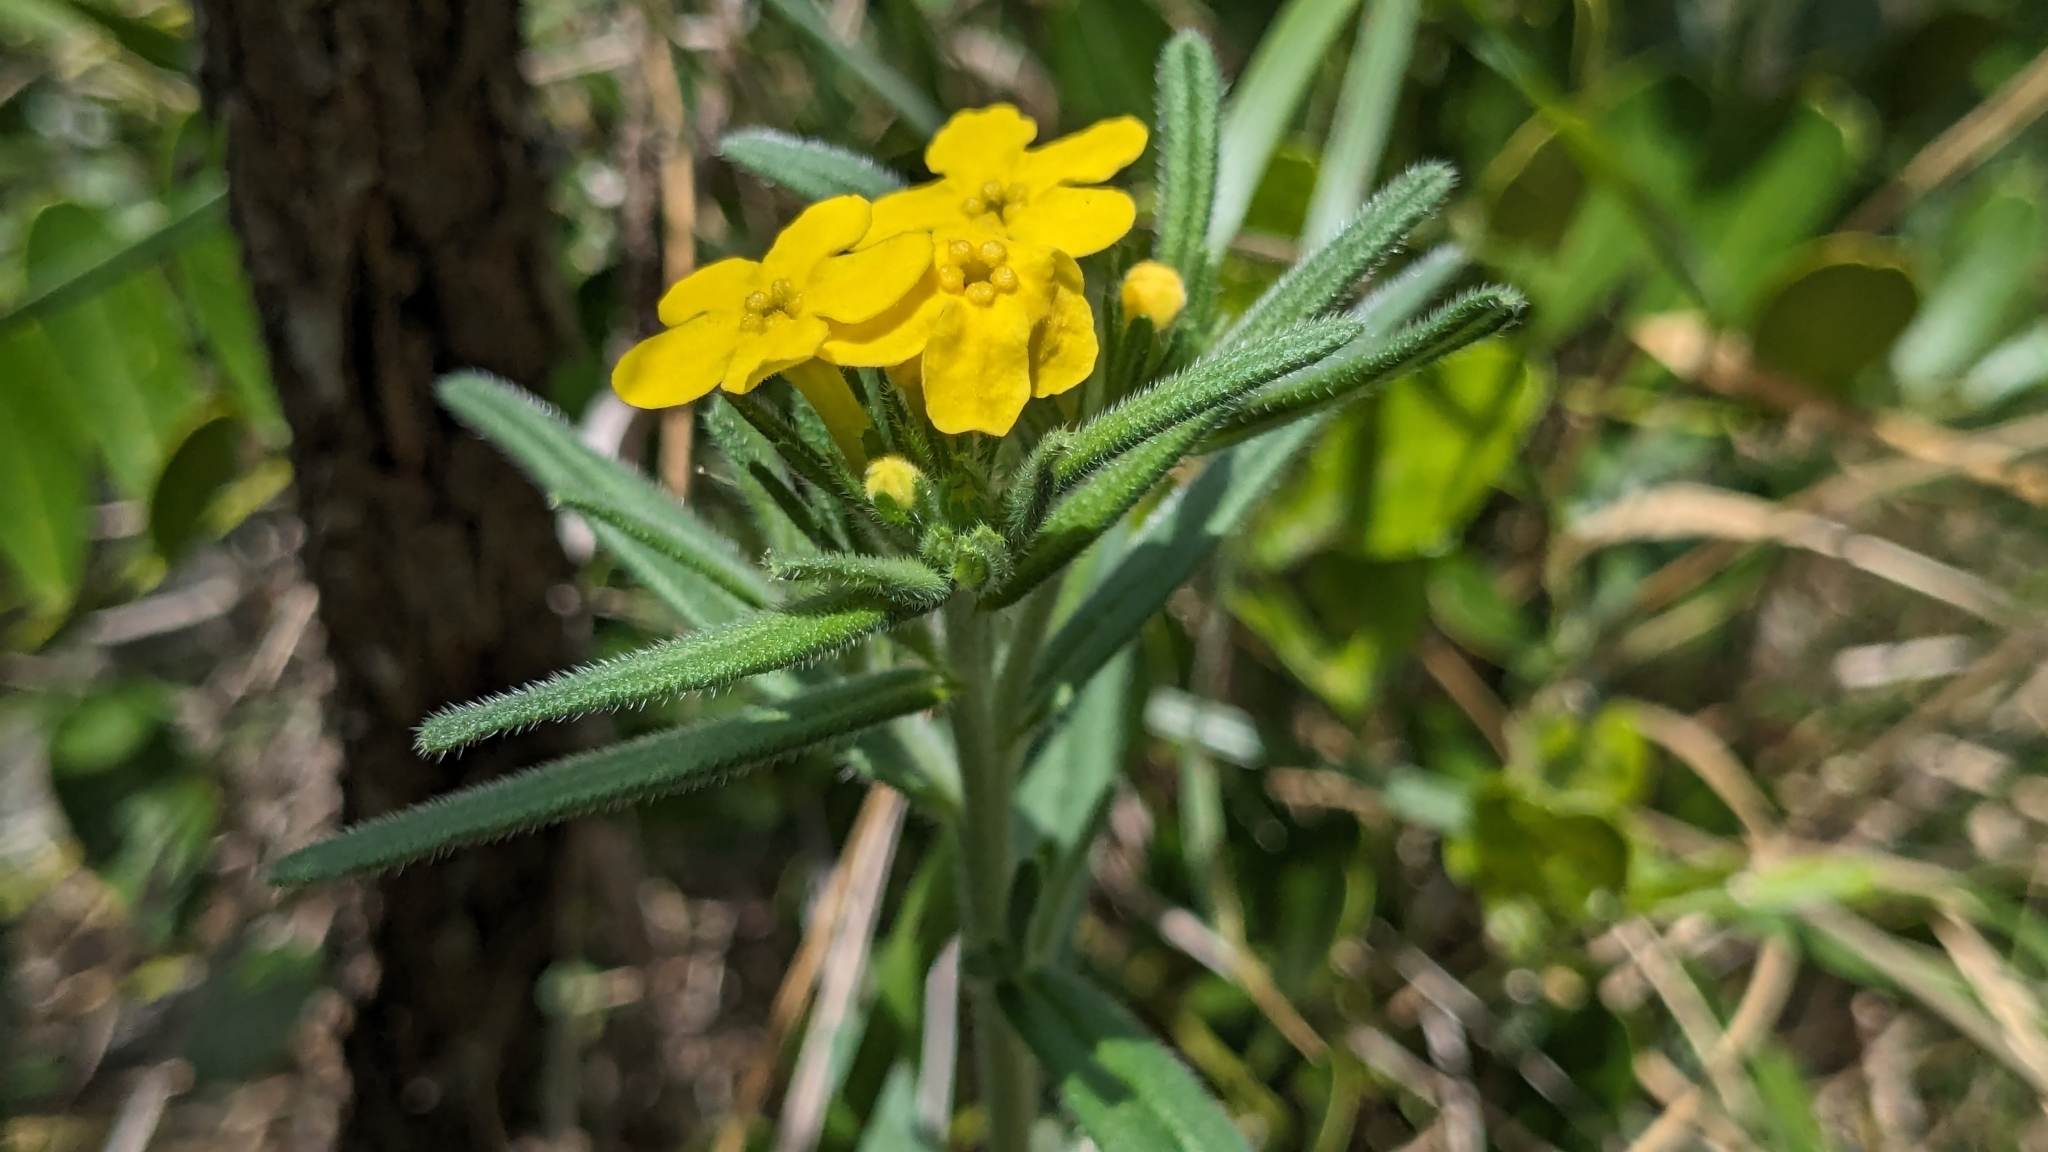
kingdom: Plantae
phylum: Tracheophyta
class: Magnoliopsida
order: Boraginales
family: Boraginaceae
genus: Lithospermum
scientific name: Lithospermum mirabile
